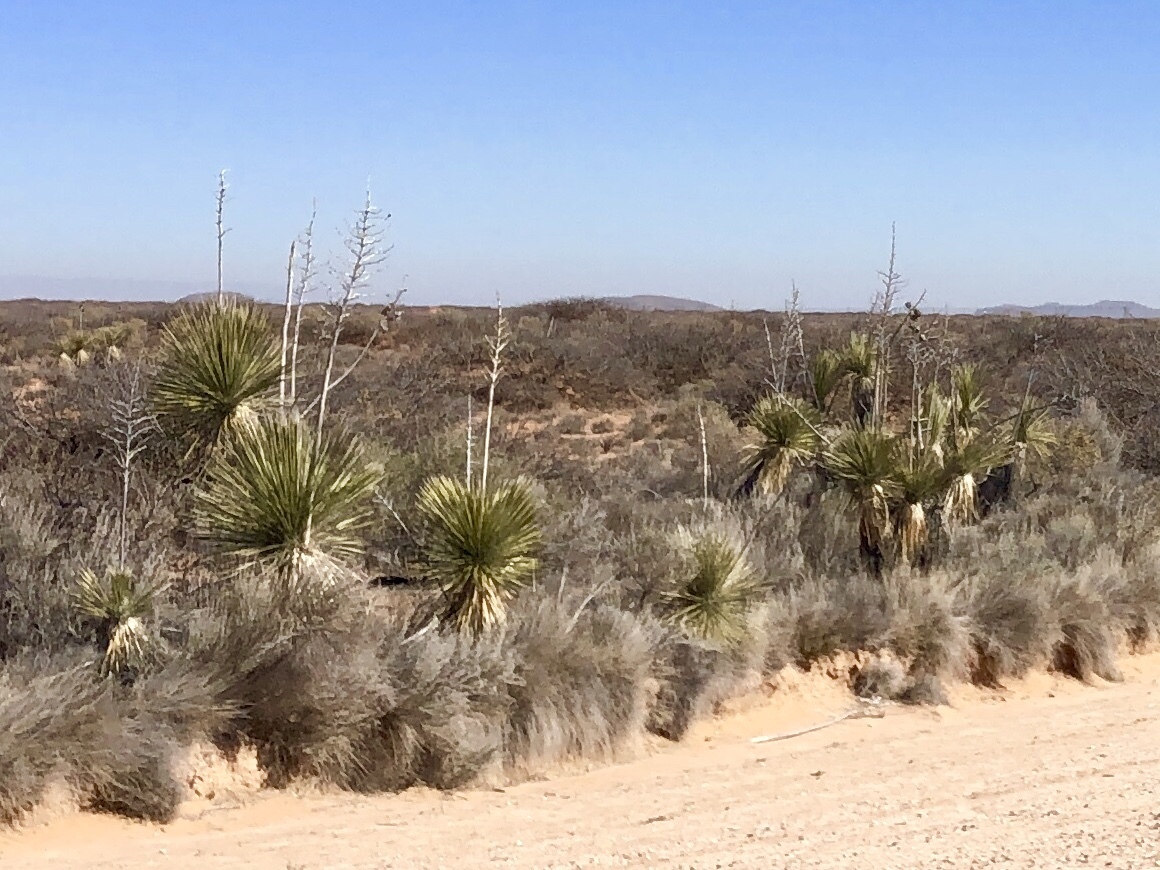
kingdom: Plantae
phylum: Tracheophyta
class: Liliopsida
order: Asparagales
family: Asparagaceae
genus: Yucca
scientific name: Yucca elata
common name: Palmella
